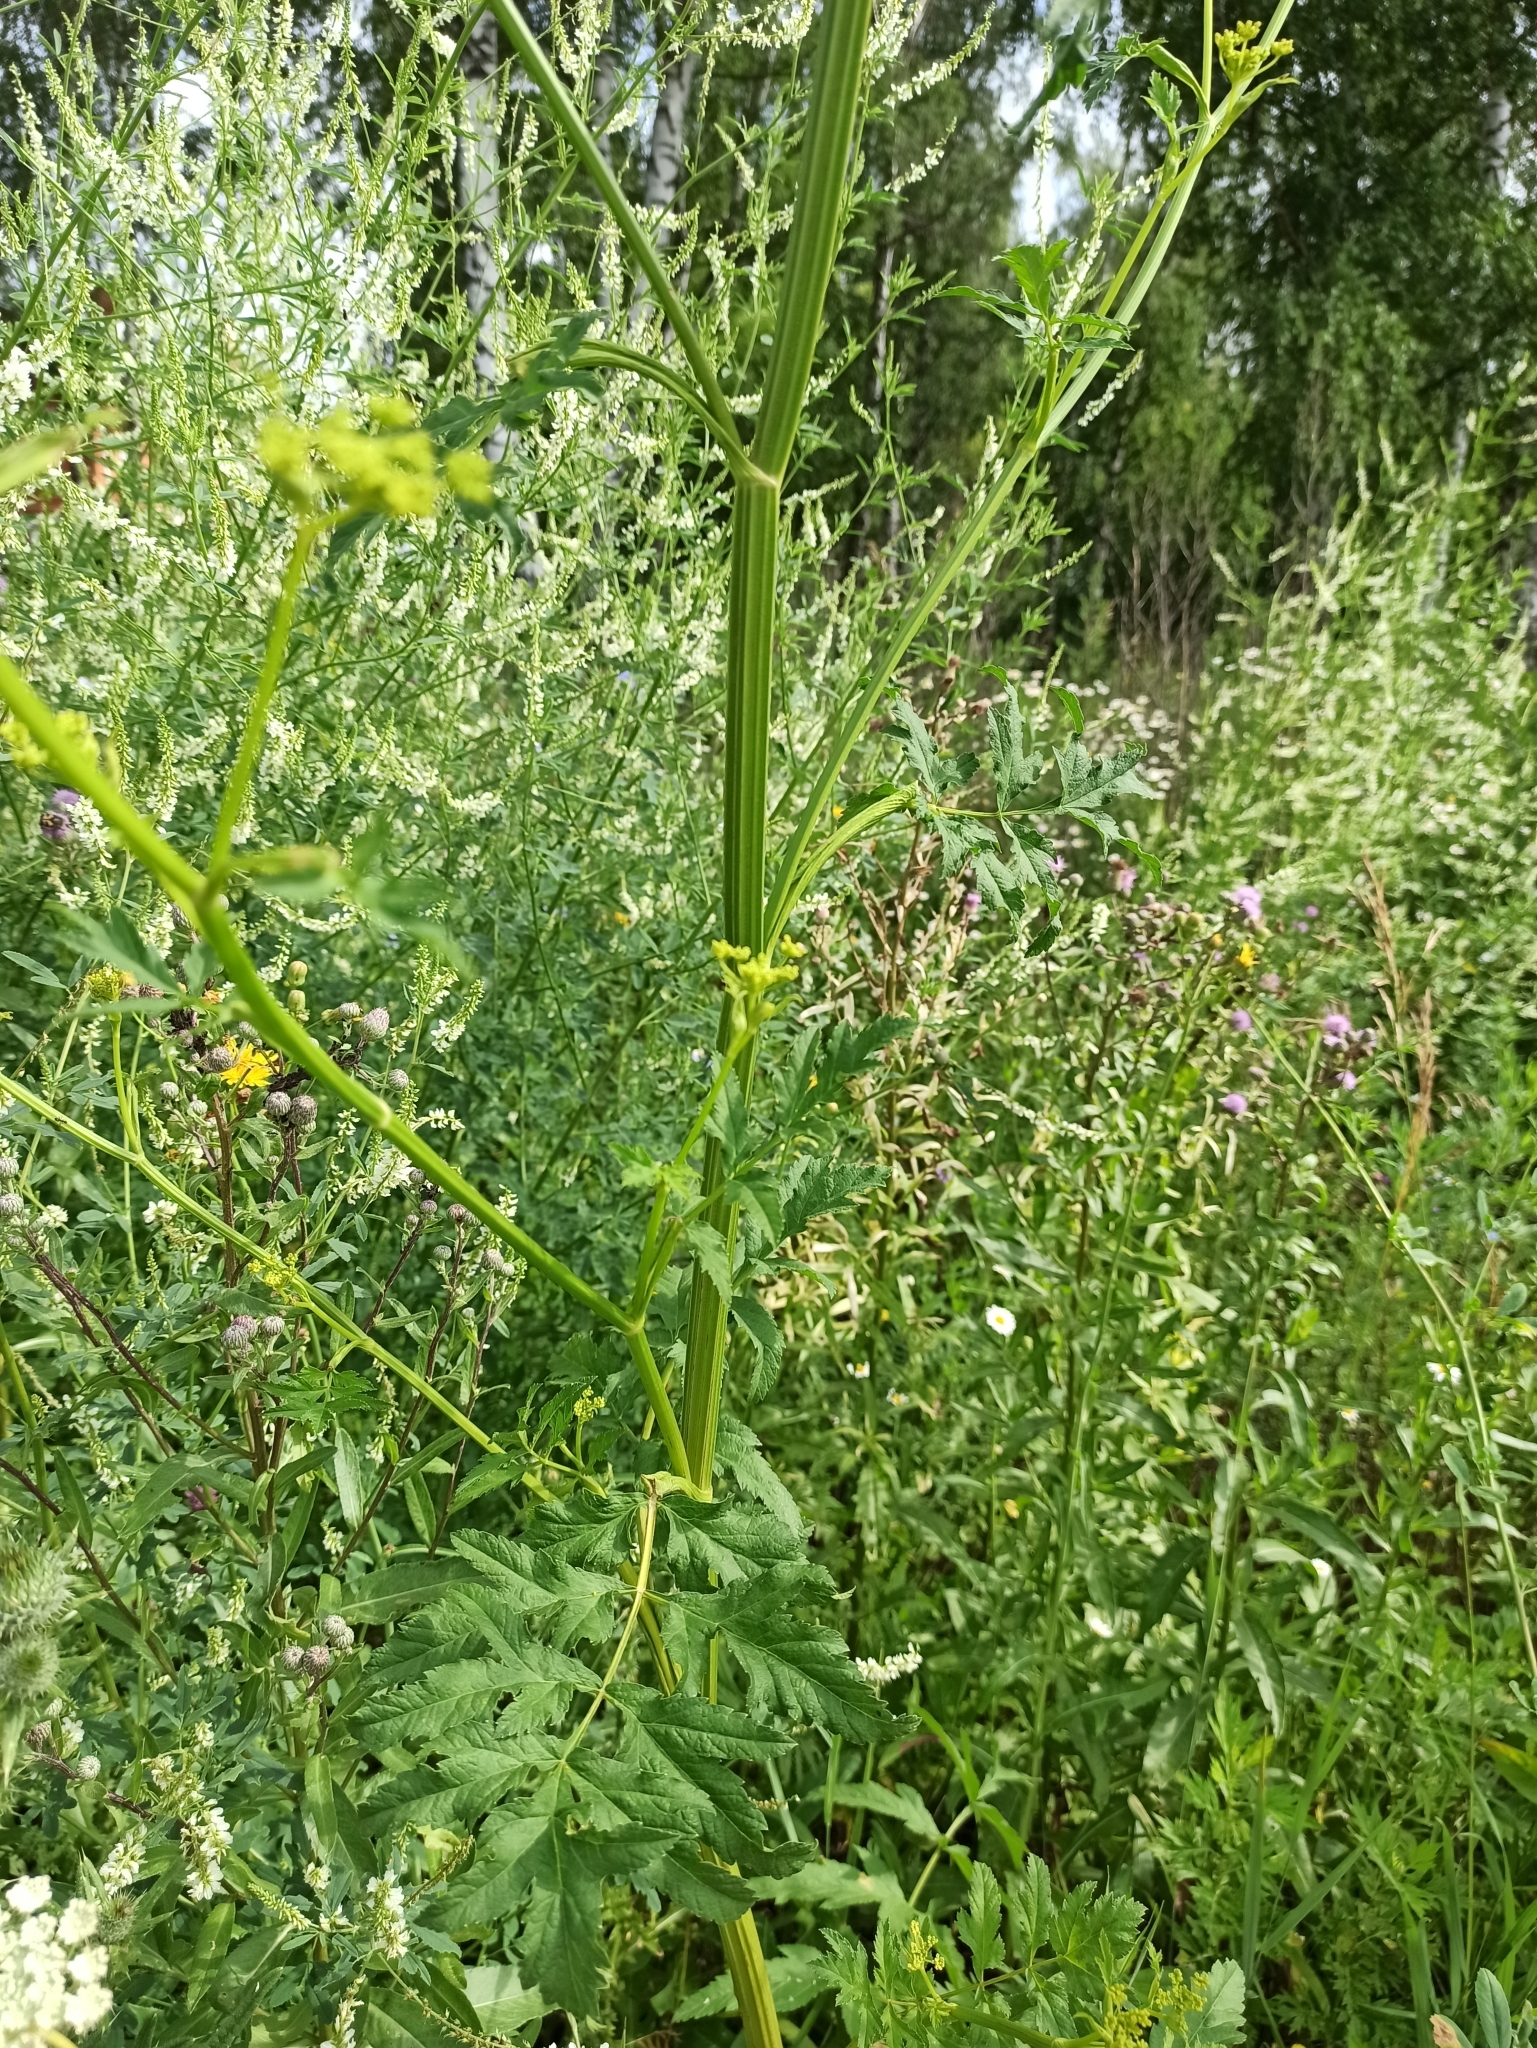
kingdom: Plantae
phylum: Tracheophyta
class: Magnoliopsida
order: Apiales
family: Apiaceae
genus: Pastinaca
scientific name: Pastinaca sativa
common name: Wild parsnip
